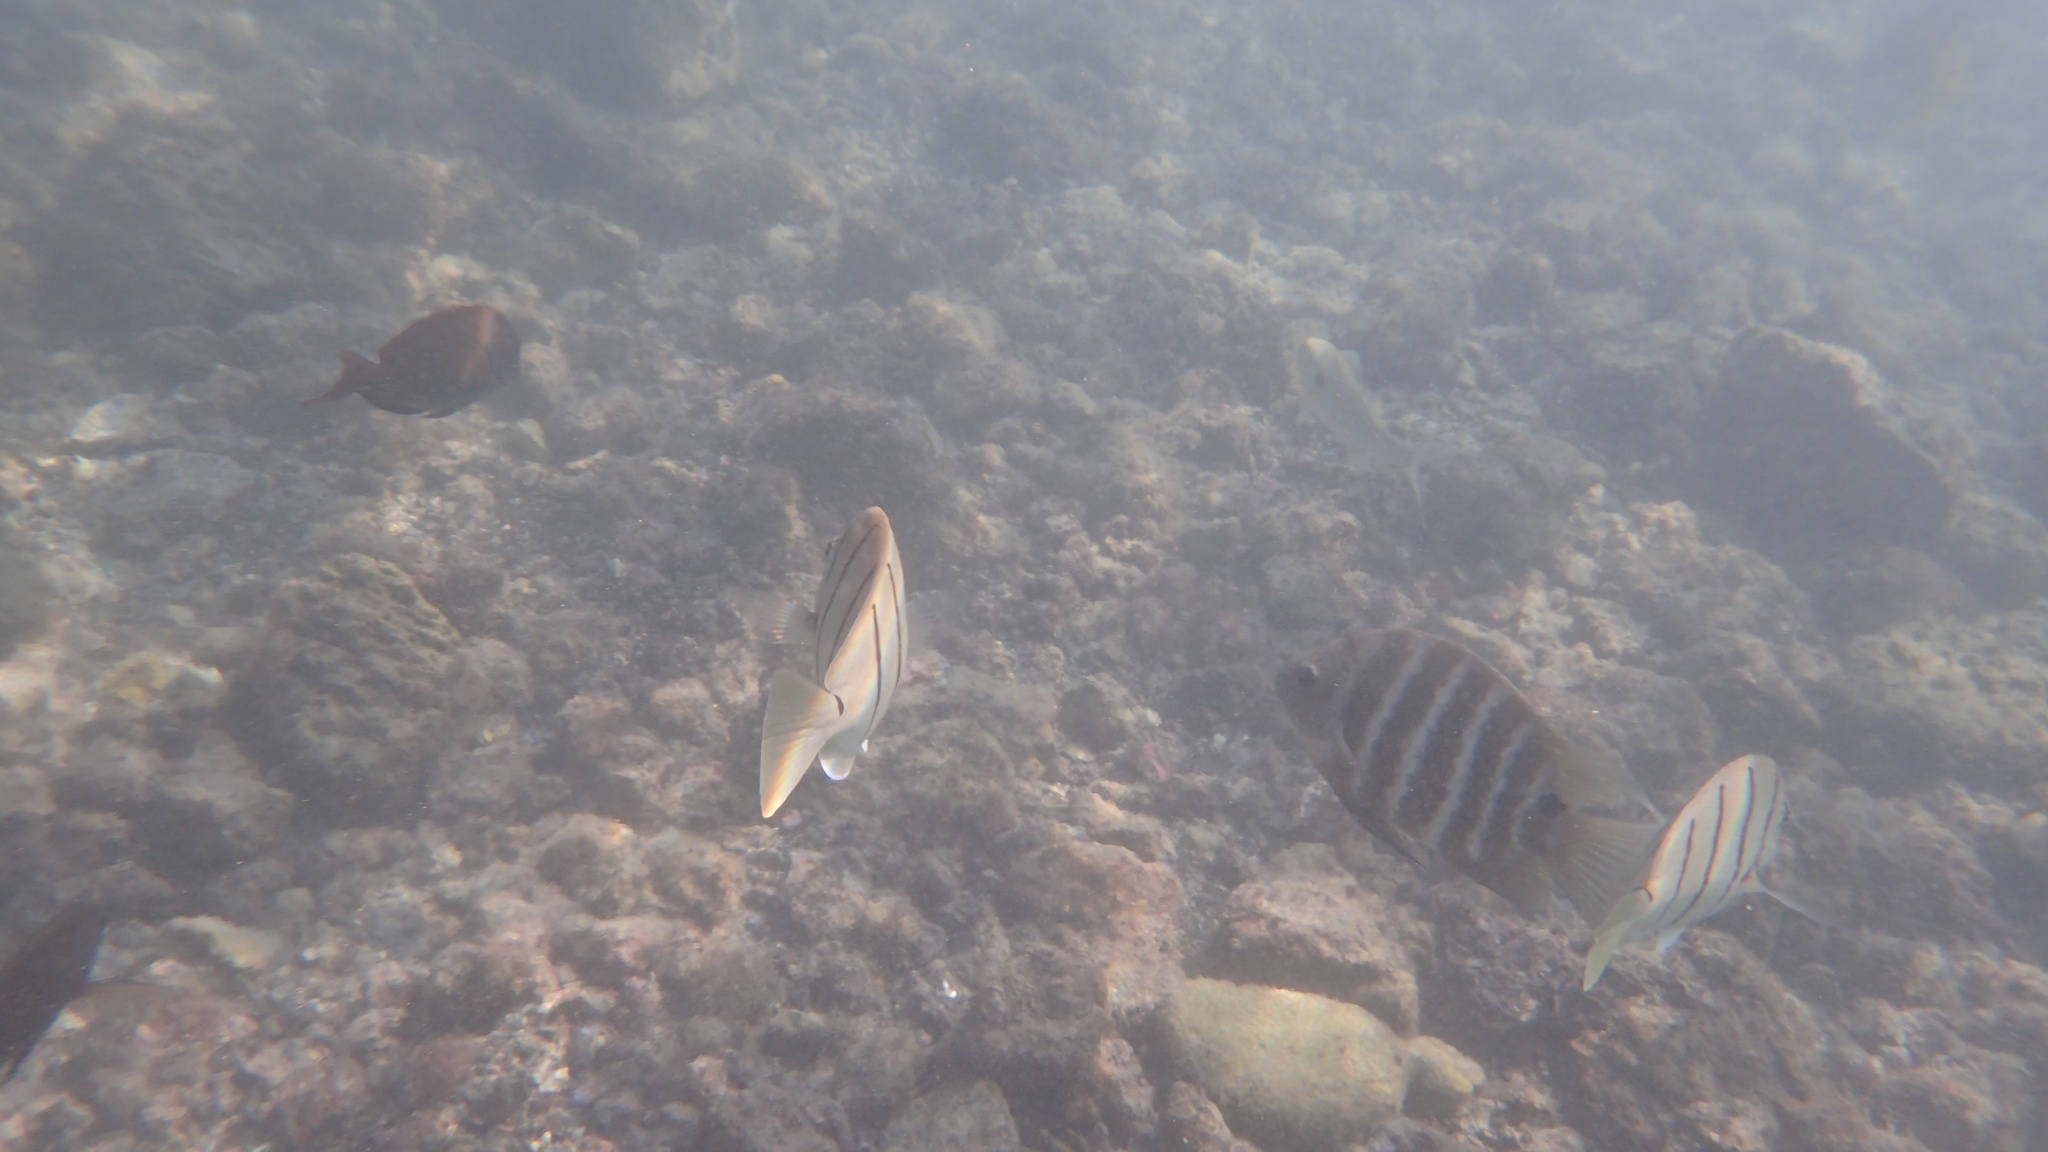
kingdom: Animalia
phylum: Chordata
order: Perciformes
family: Pomacentridae
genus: Abudefduf
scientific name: Abudefduf sordidus
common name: Blackspot sergeant
